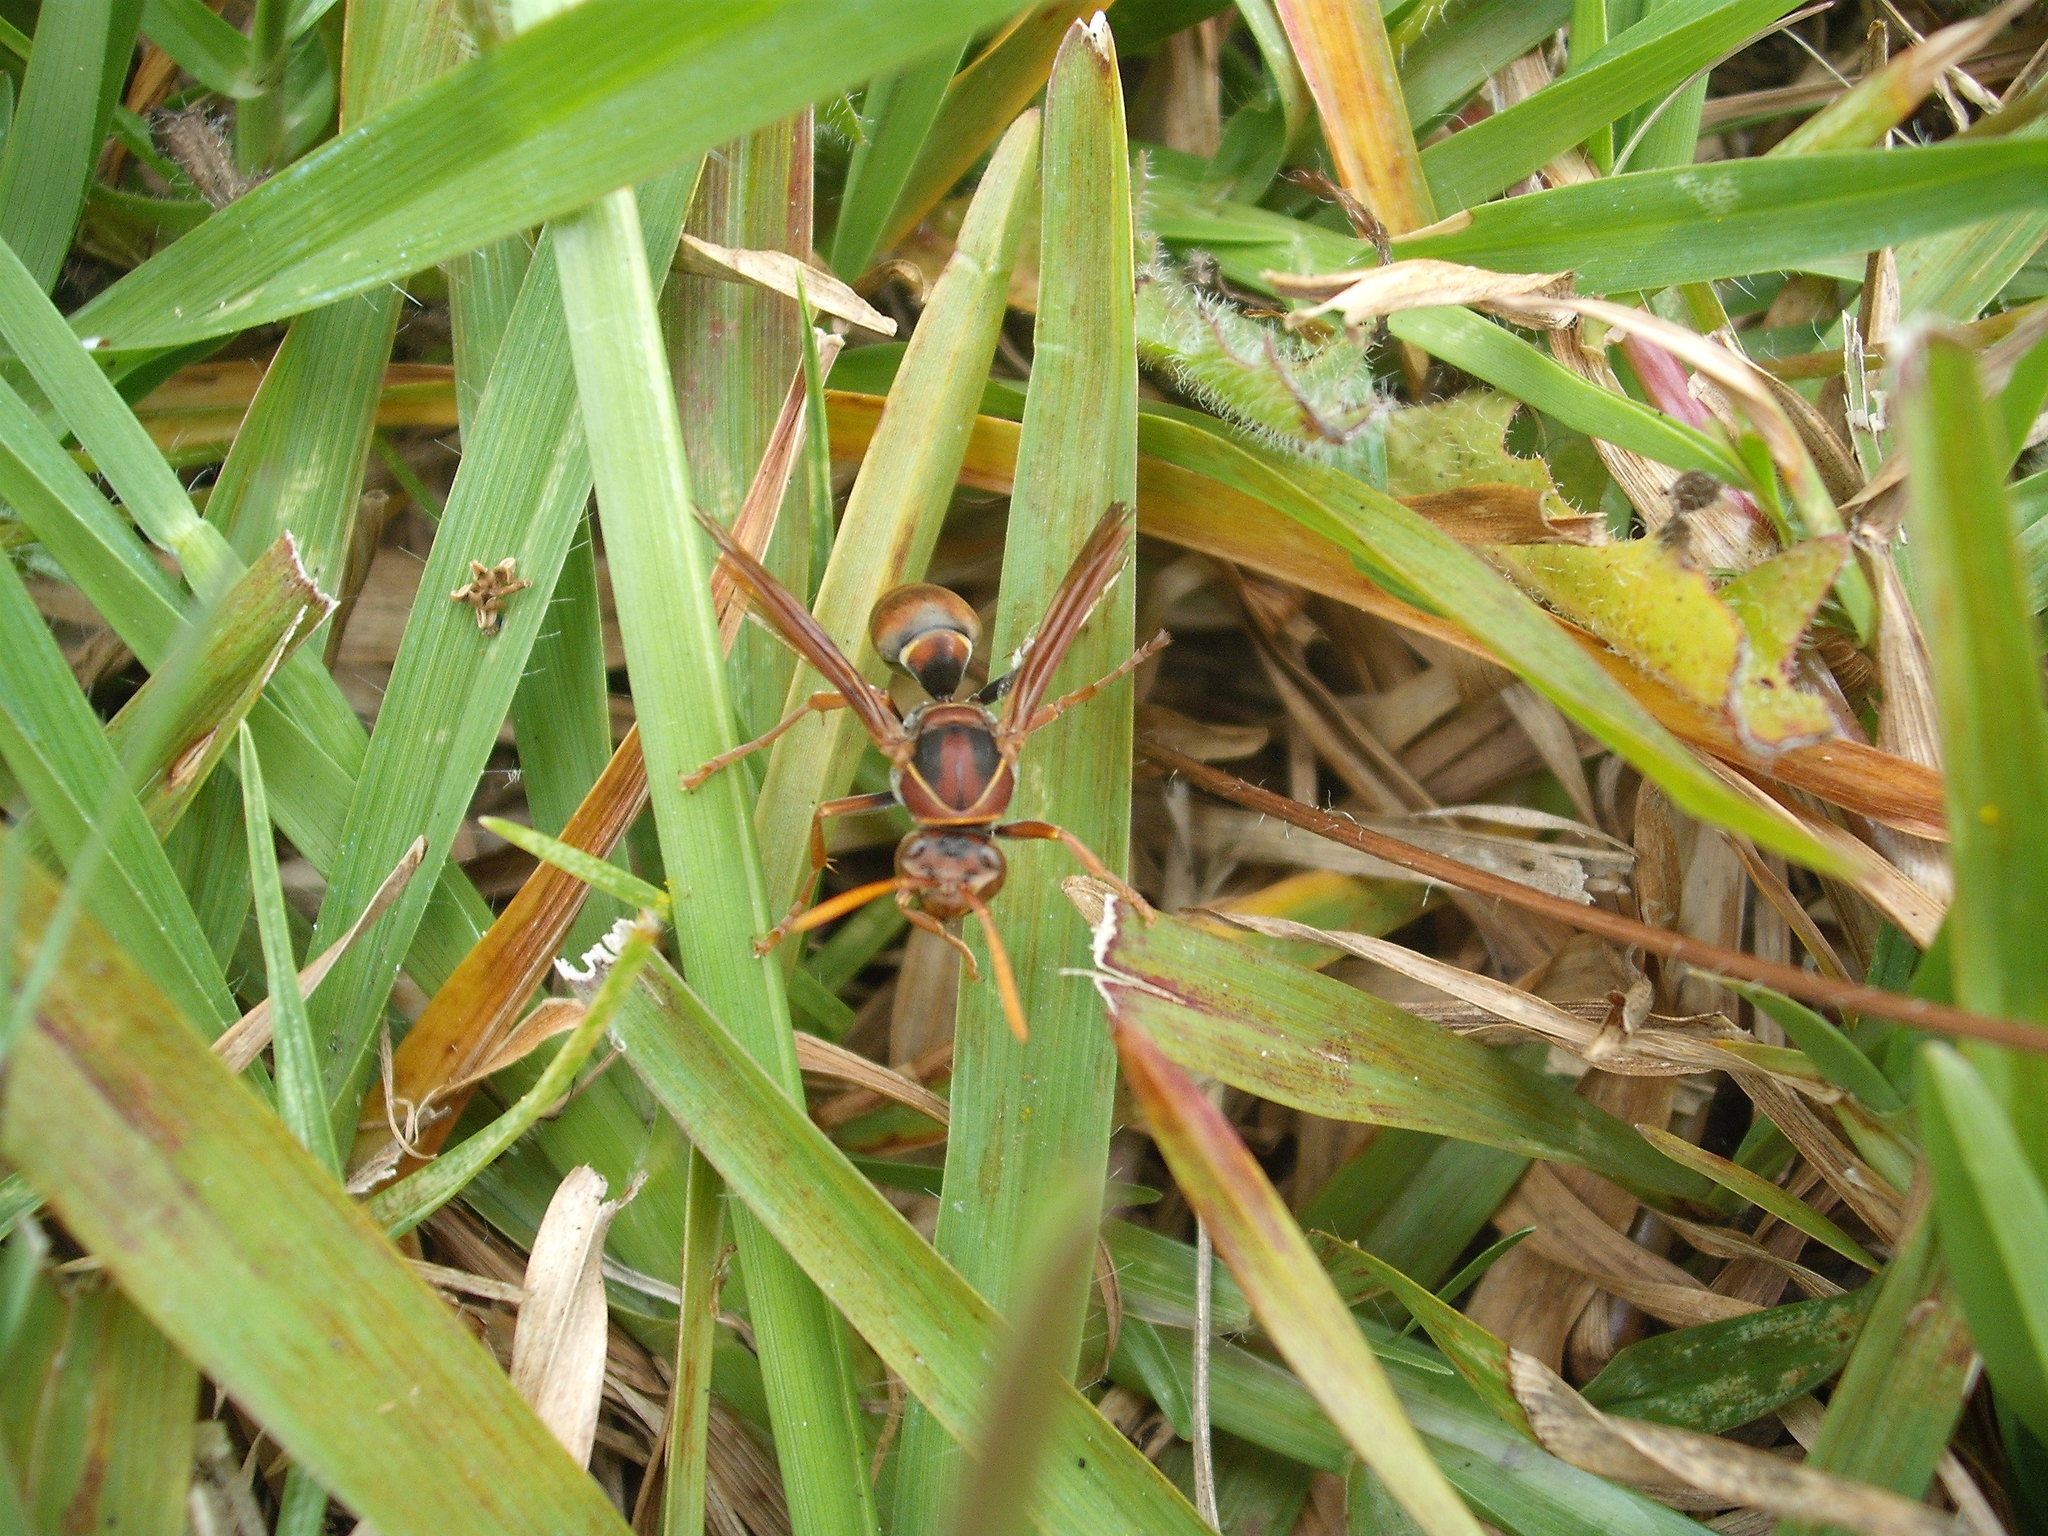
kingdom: Animalia
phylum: Arthropoda
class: Insecta
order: Hymenoptera
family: Eumenidae
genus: Polistes
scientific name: Polistes humilis
